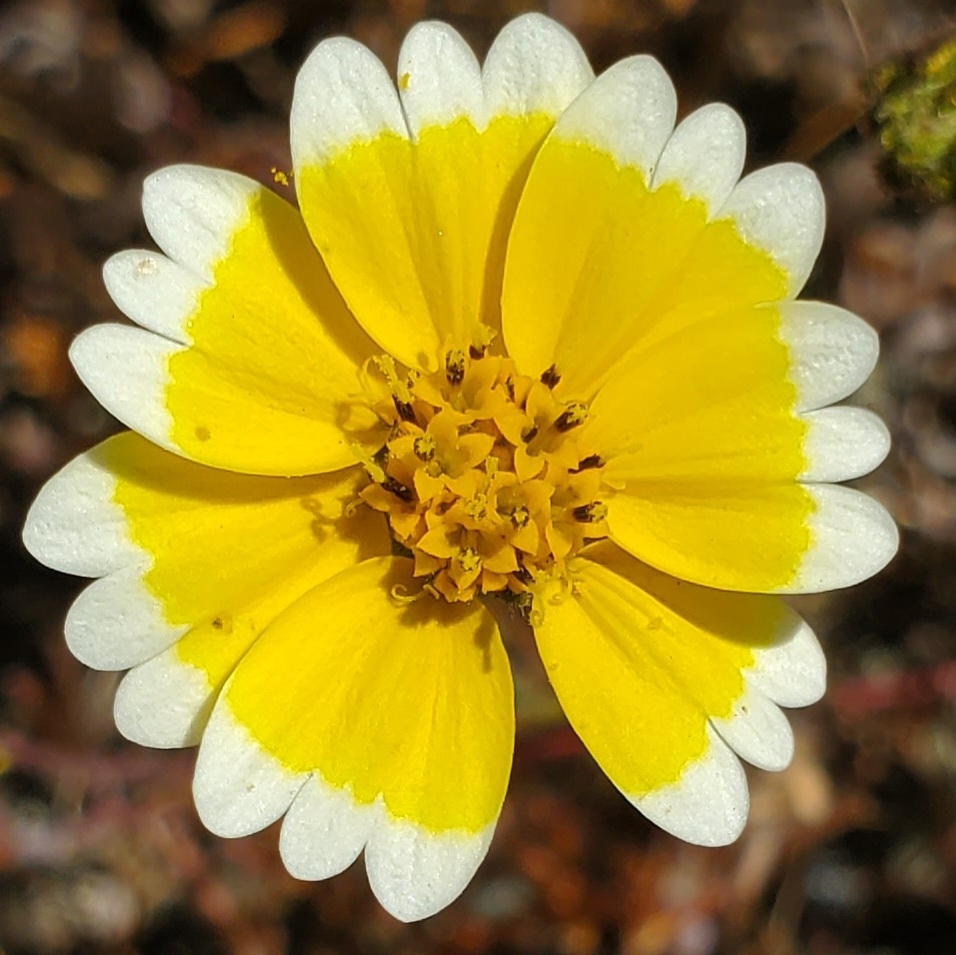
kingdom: Plantae
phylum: Tracheophyta
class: Magnoliopsida
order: Asterales
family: Asteraceae
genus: Layia
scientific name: Layia platyglossa
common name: Tidy-tips
